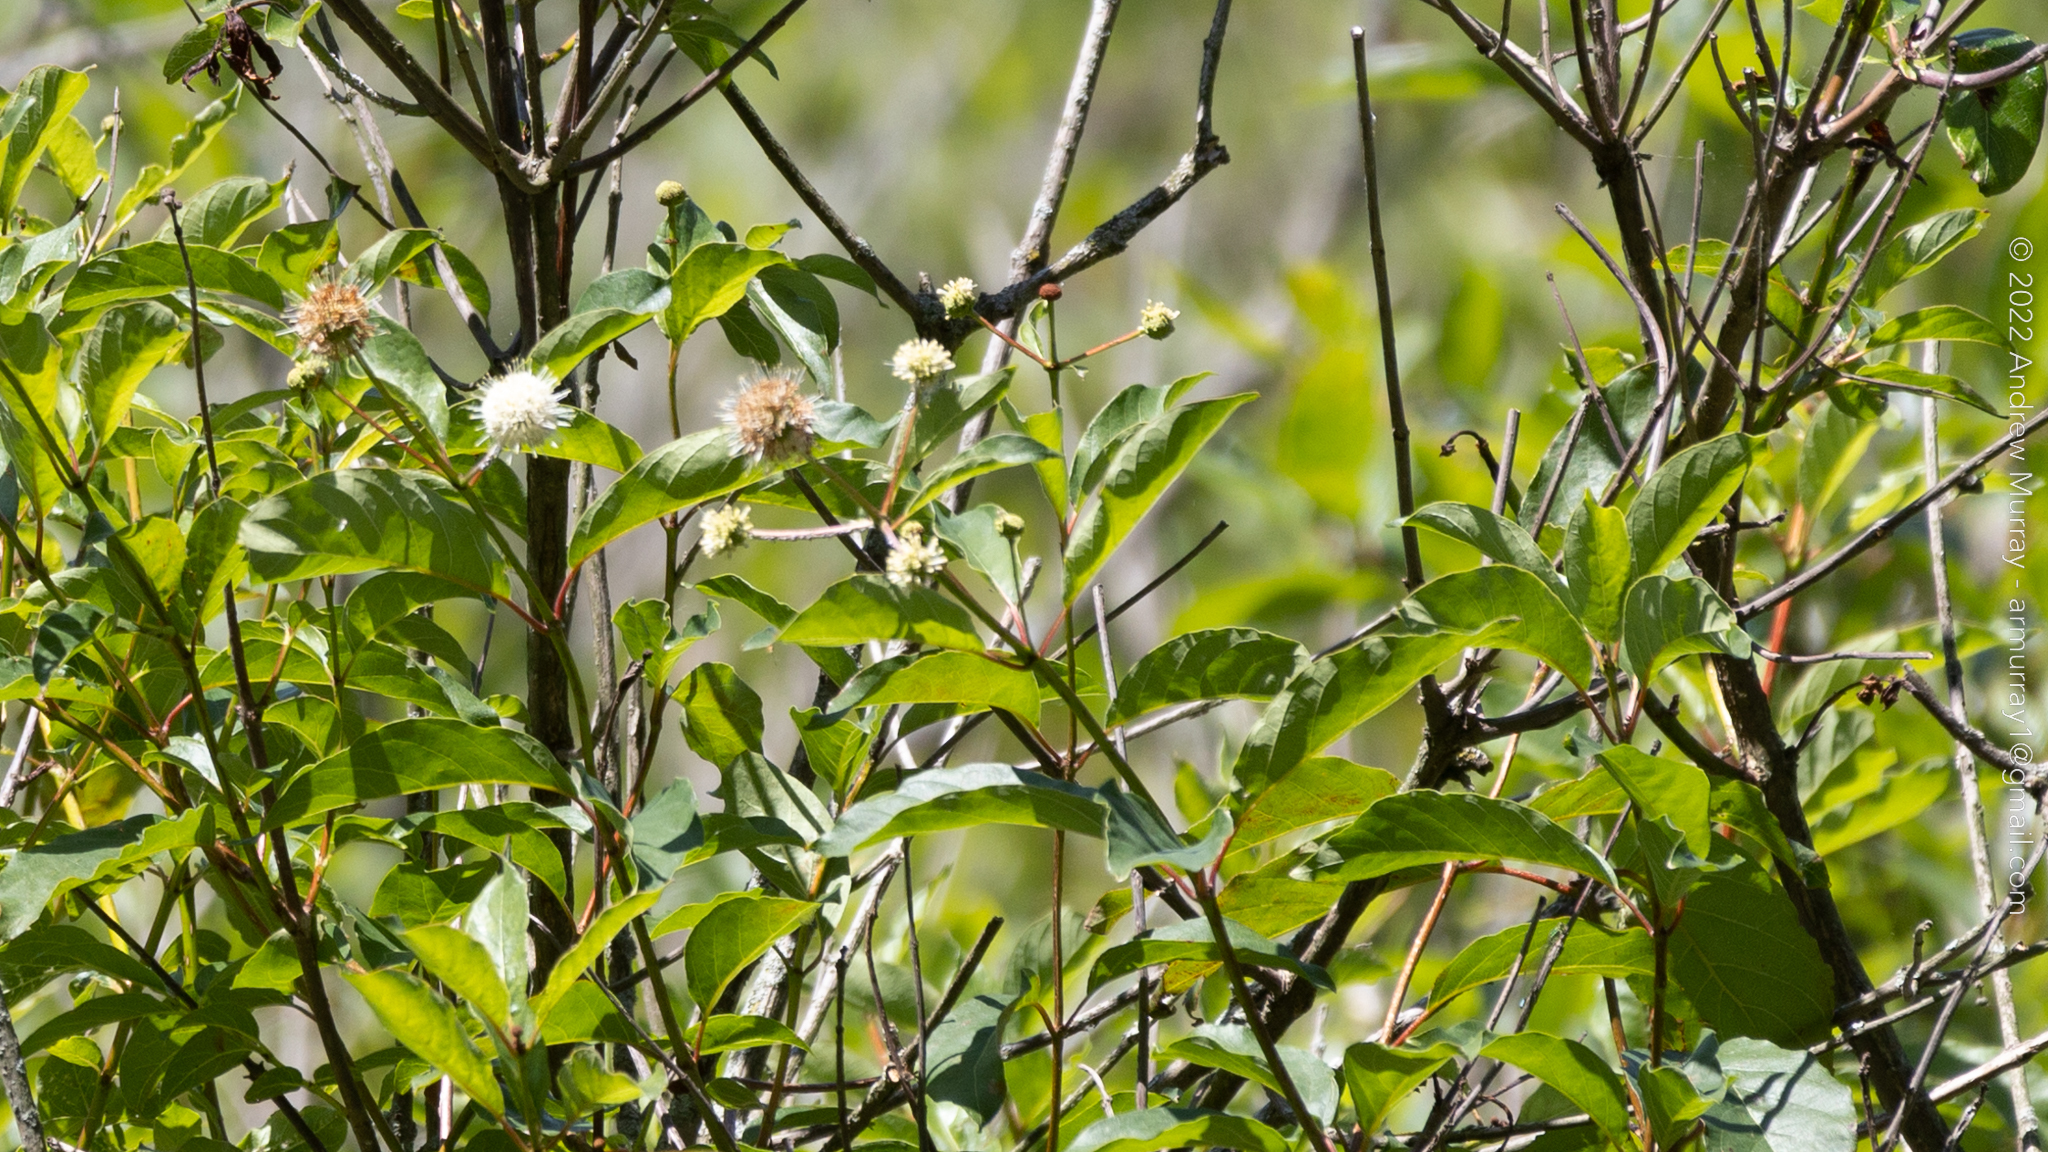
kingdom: Plantae
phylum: Tracheophyta
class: Magnoliopsida
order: Gentianales
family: Rubiaceae
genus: Cephalanthus
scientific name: Cephalanthus occidentalis
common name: Button-willow
